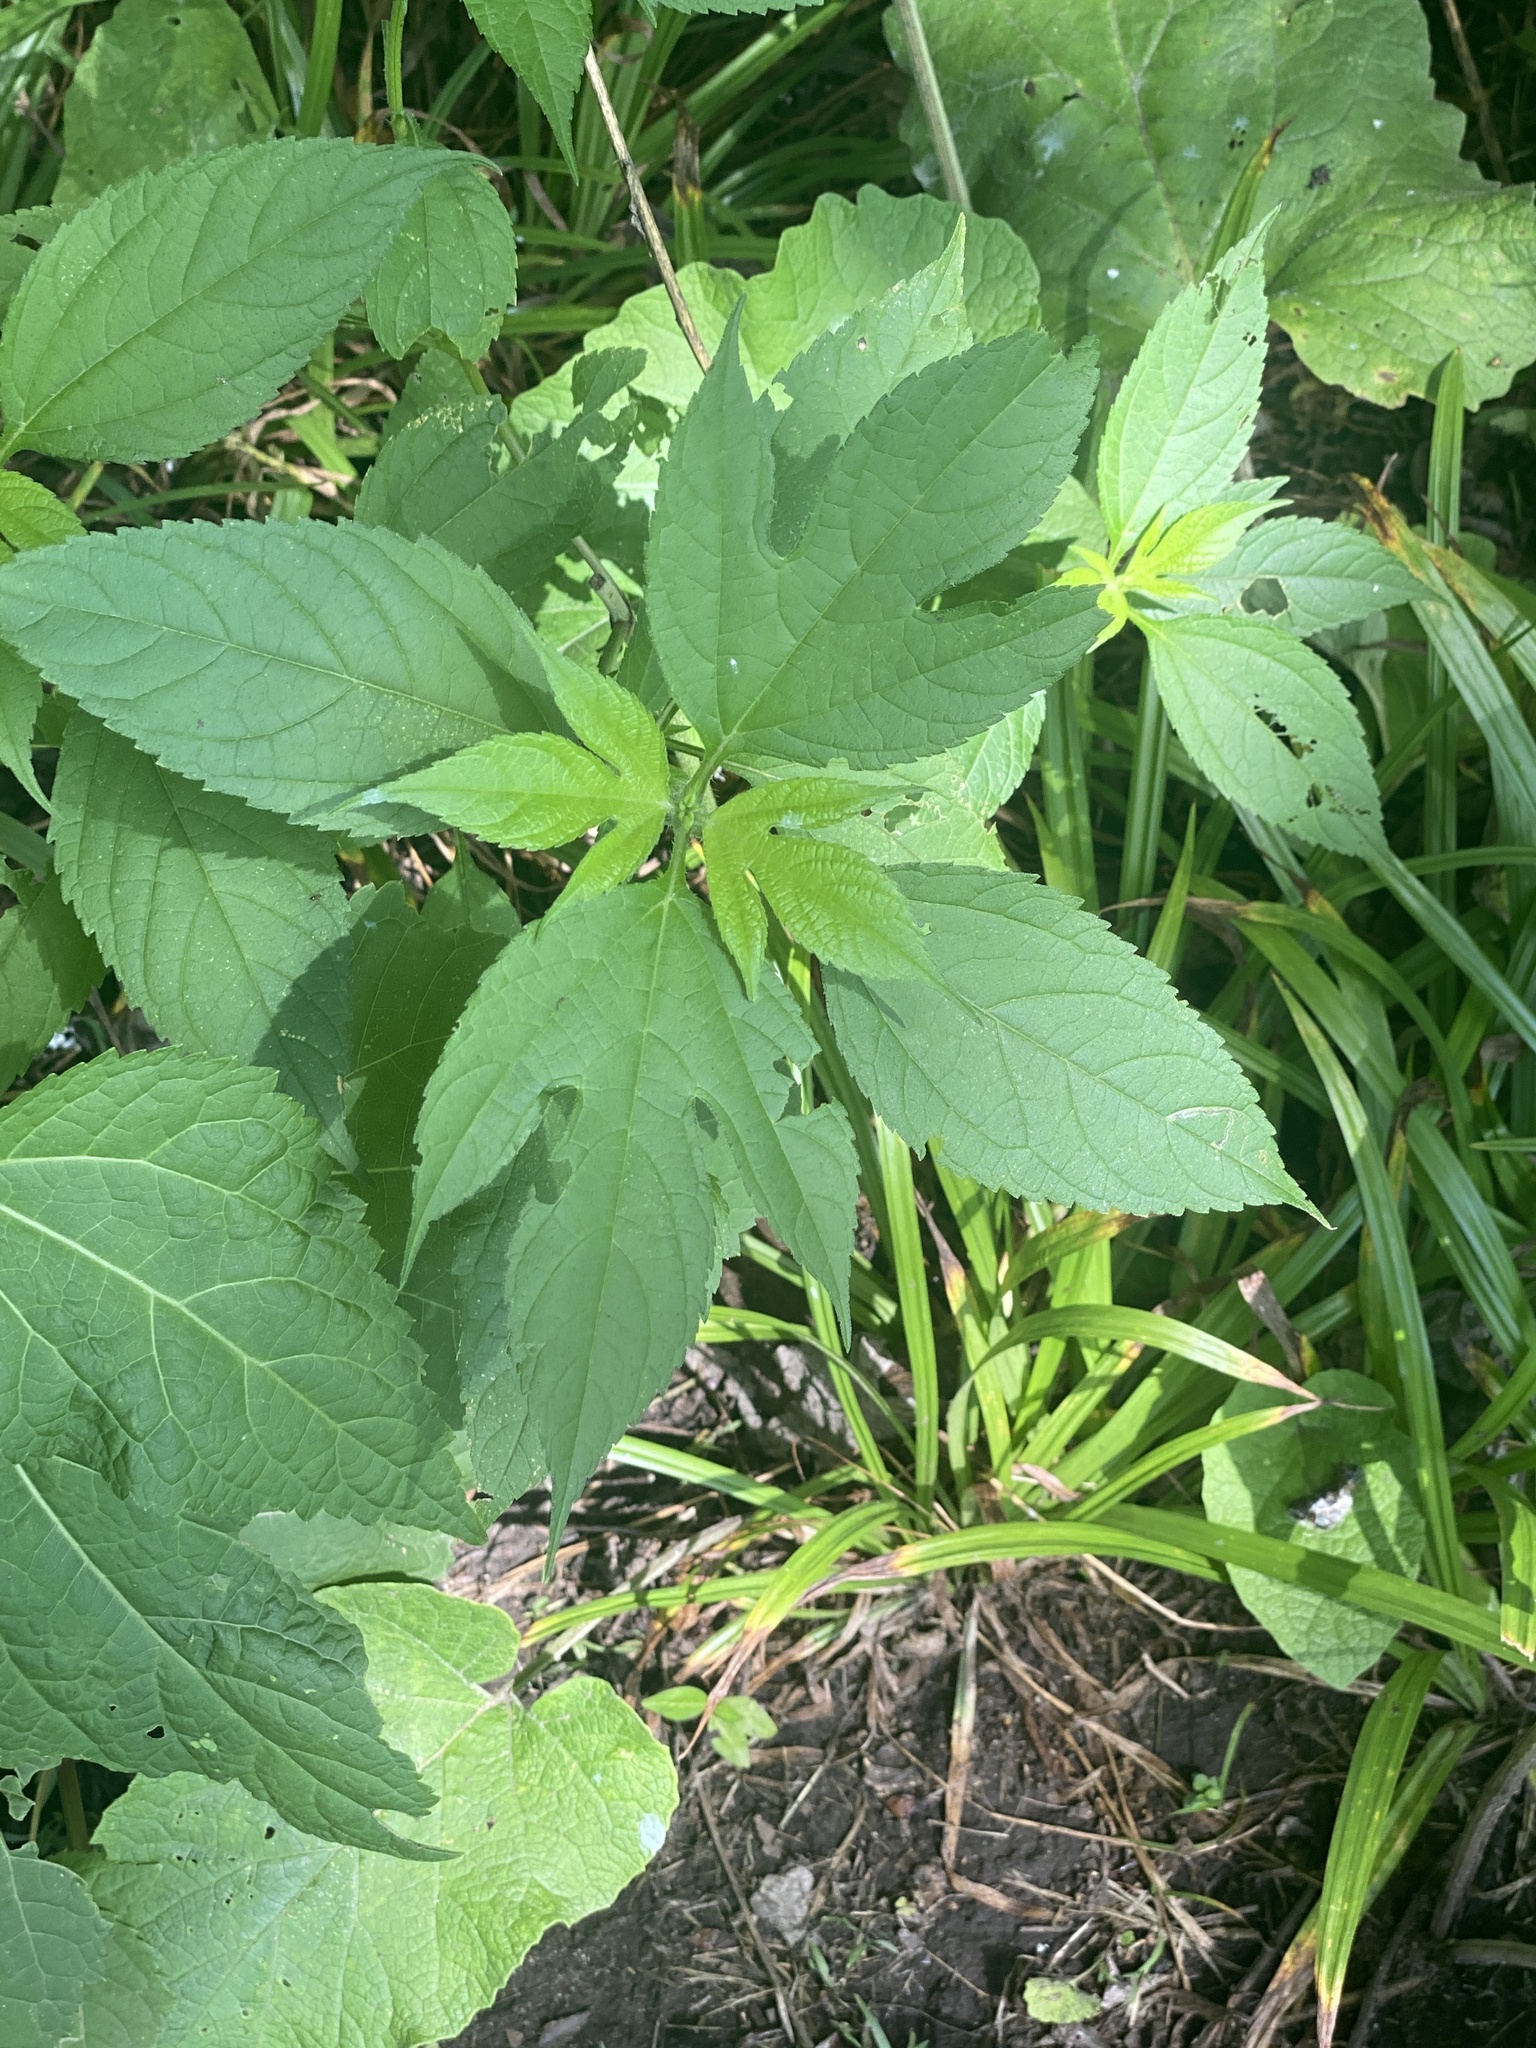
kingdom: Plantae
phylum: Tracheophyta
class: Magnoliopsida
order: Asterales
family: Asteraceae
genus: Ambrosia
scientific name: Ambrosia trifida
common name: Giant ragweed
